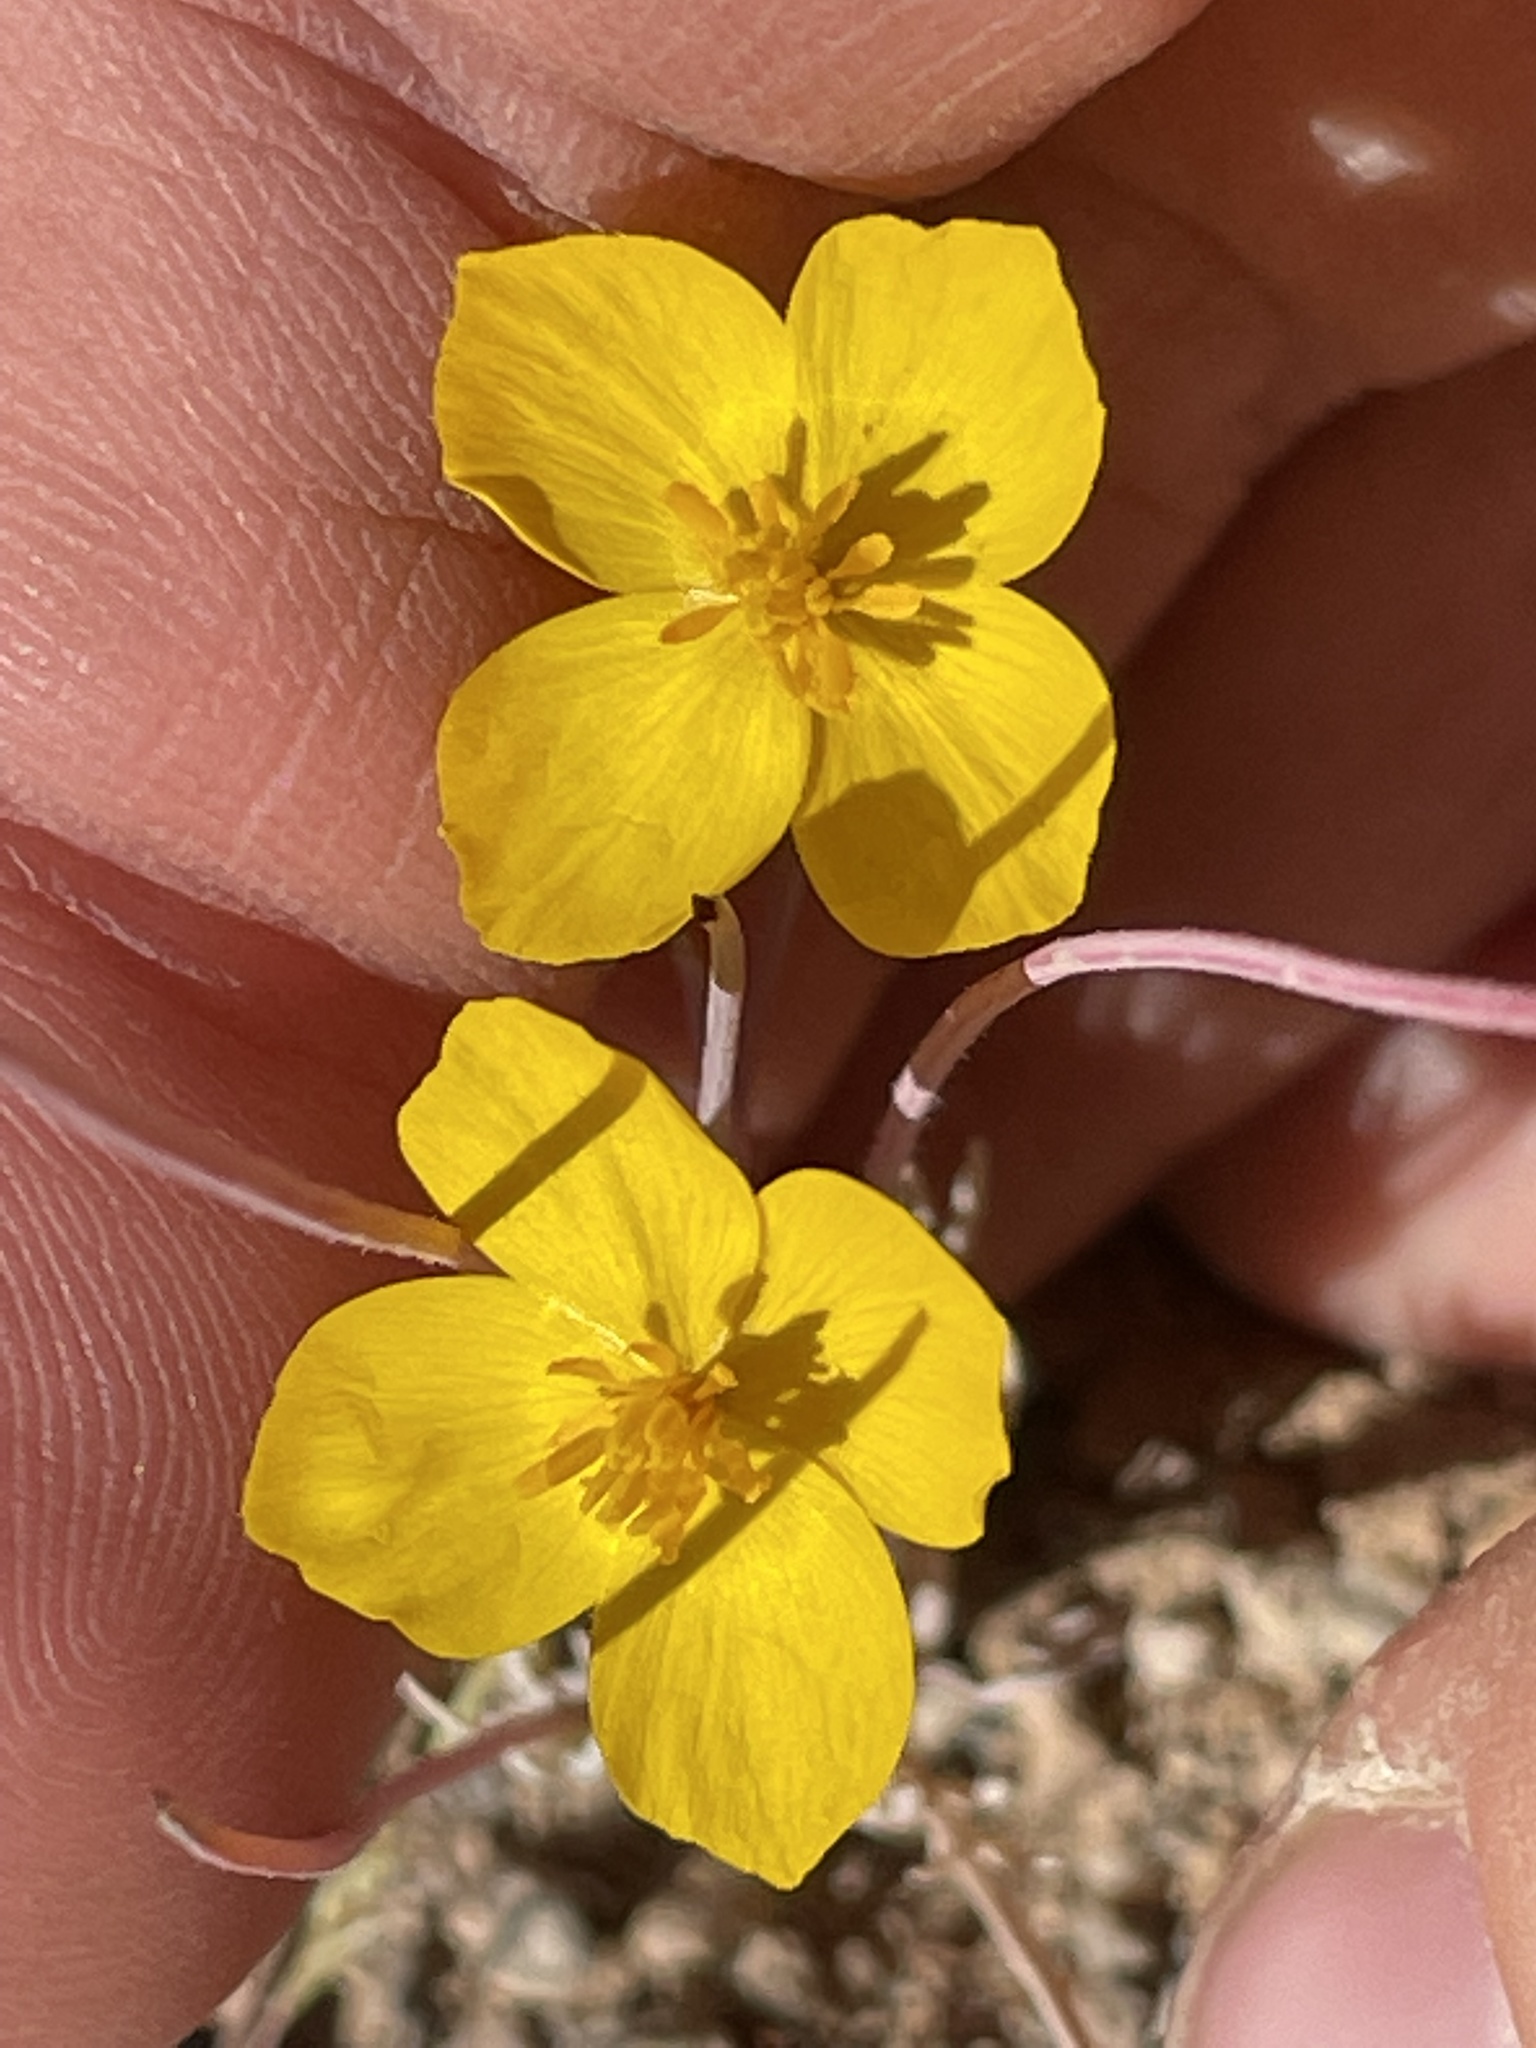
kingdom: Plantae
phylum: Tracheophyta
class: Magnoliopsida
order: Ranunculales
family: Papaveraceae
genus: Eschscholzia
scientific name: Eschscholzia glyptosperma
